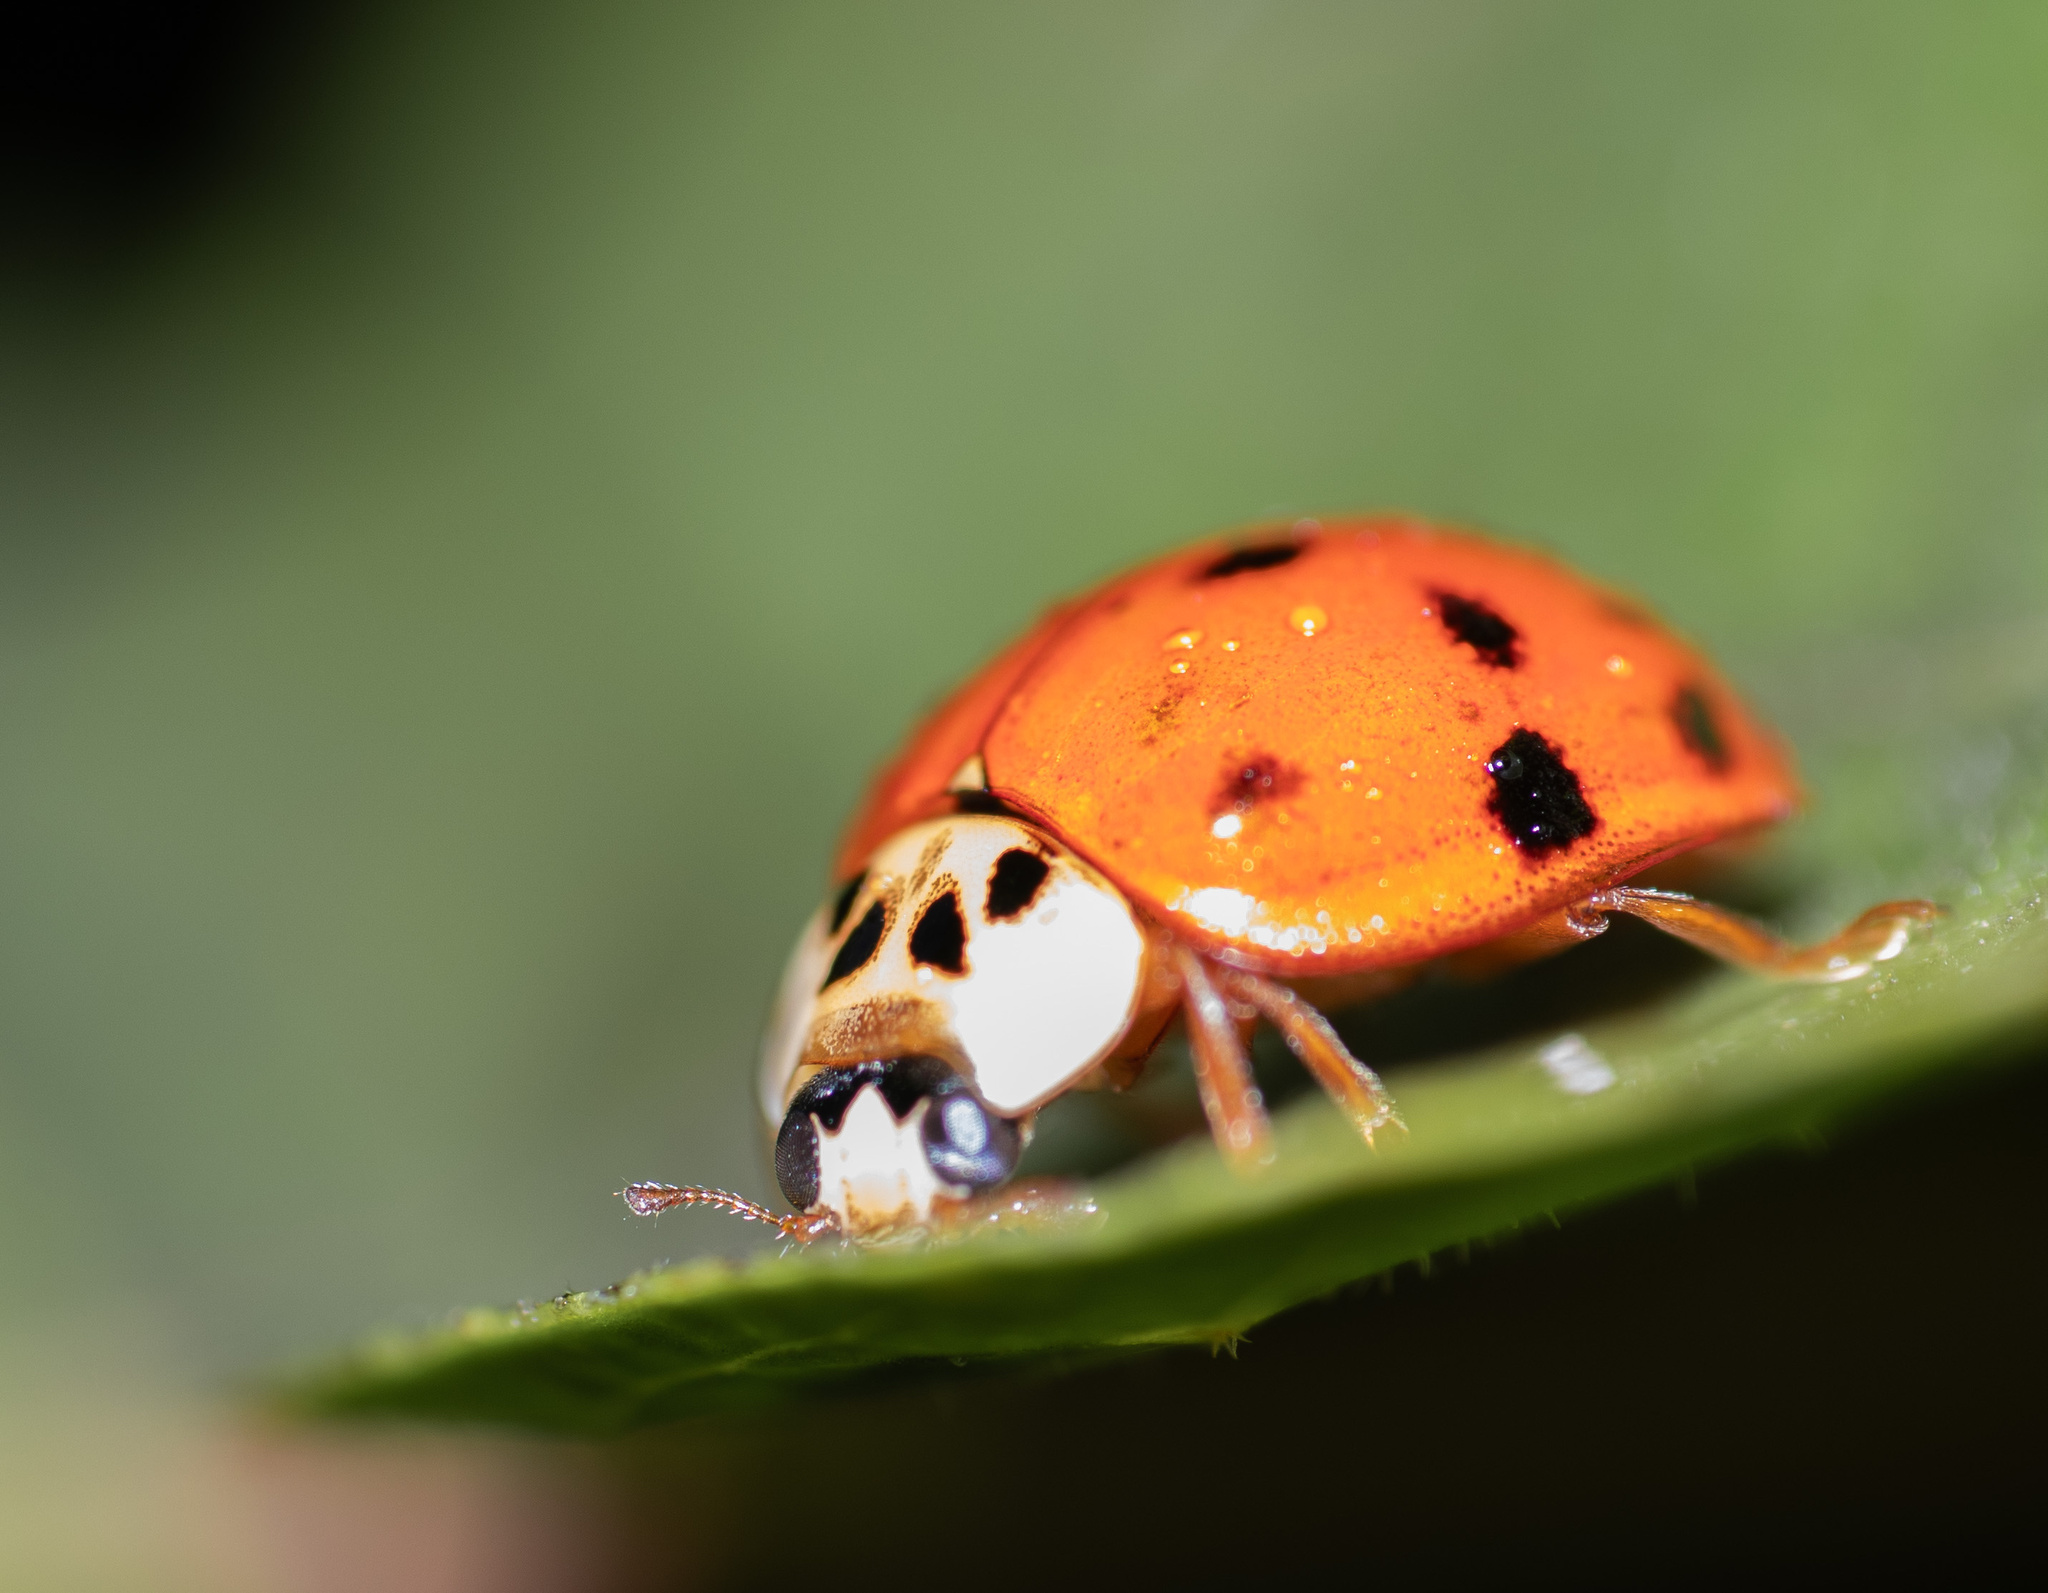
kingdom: Animalia
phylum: Arthropoda
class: Insecta
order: Coleoptera
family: Coccinellidae
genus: Harmonia
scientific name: Harmonia axyridis
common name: Harlequin ladybird
